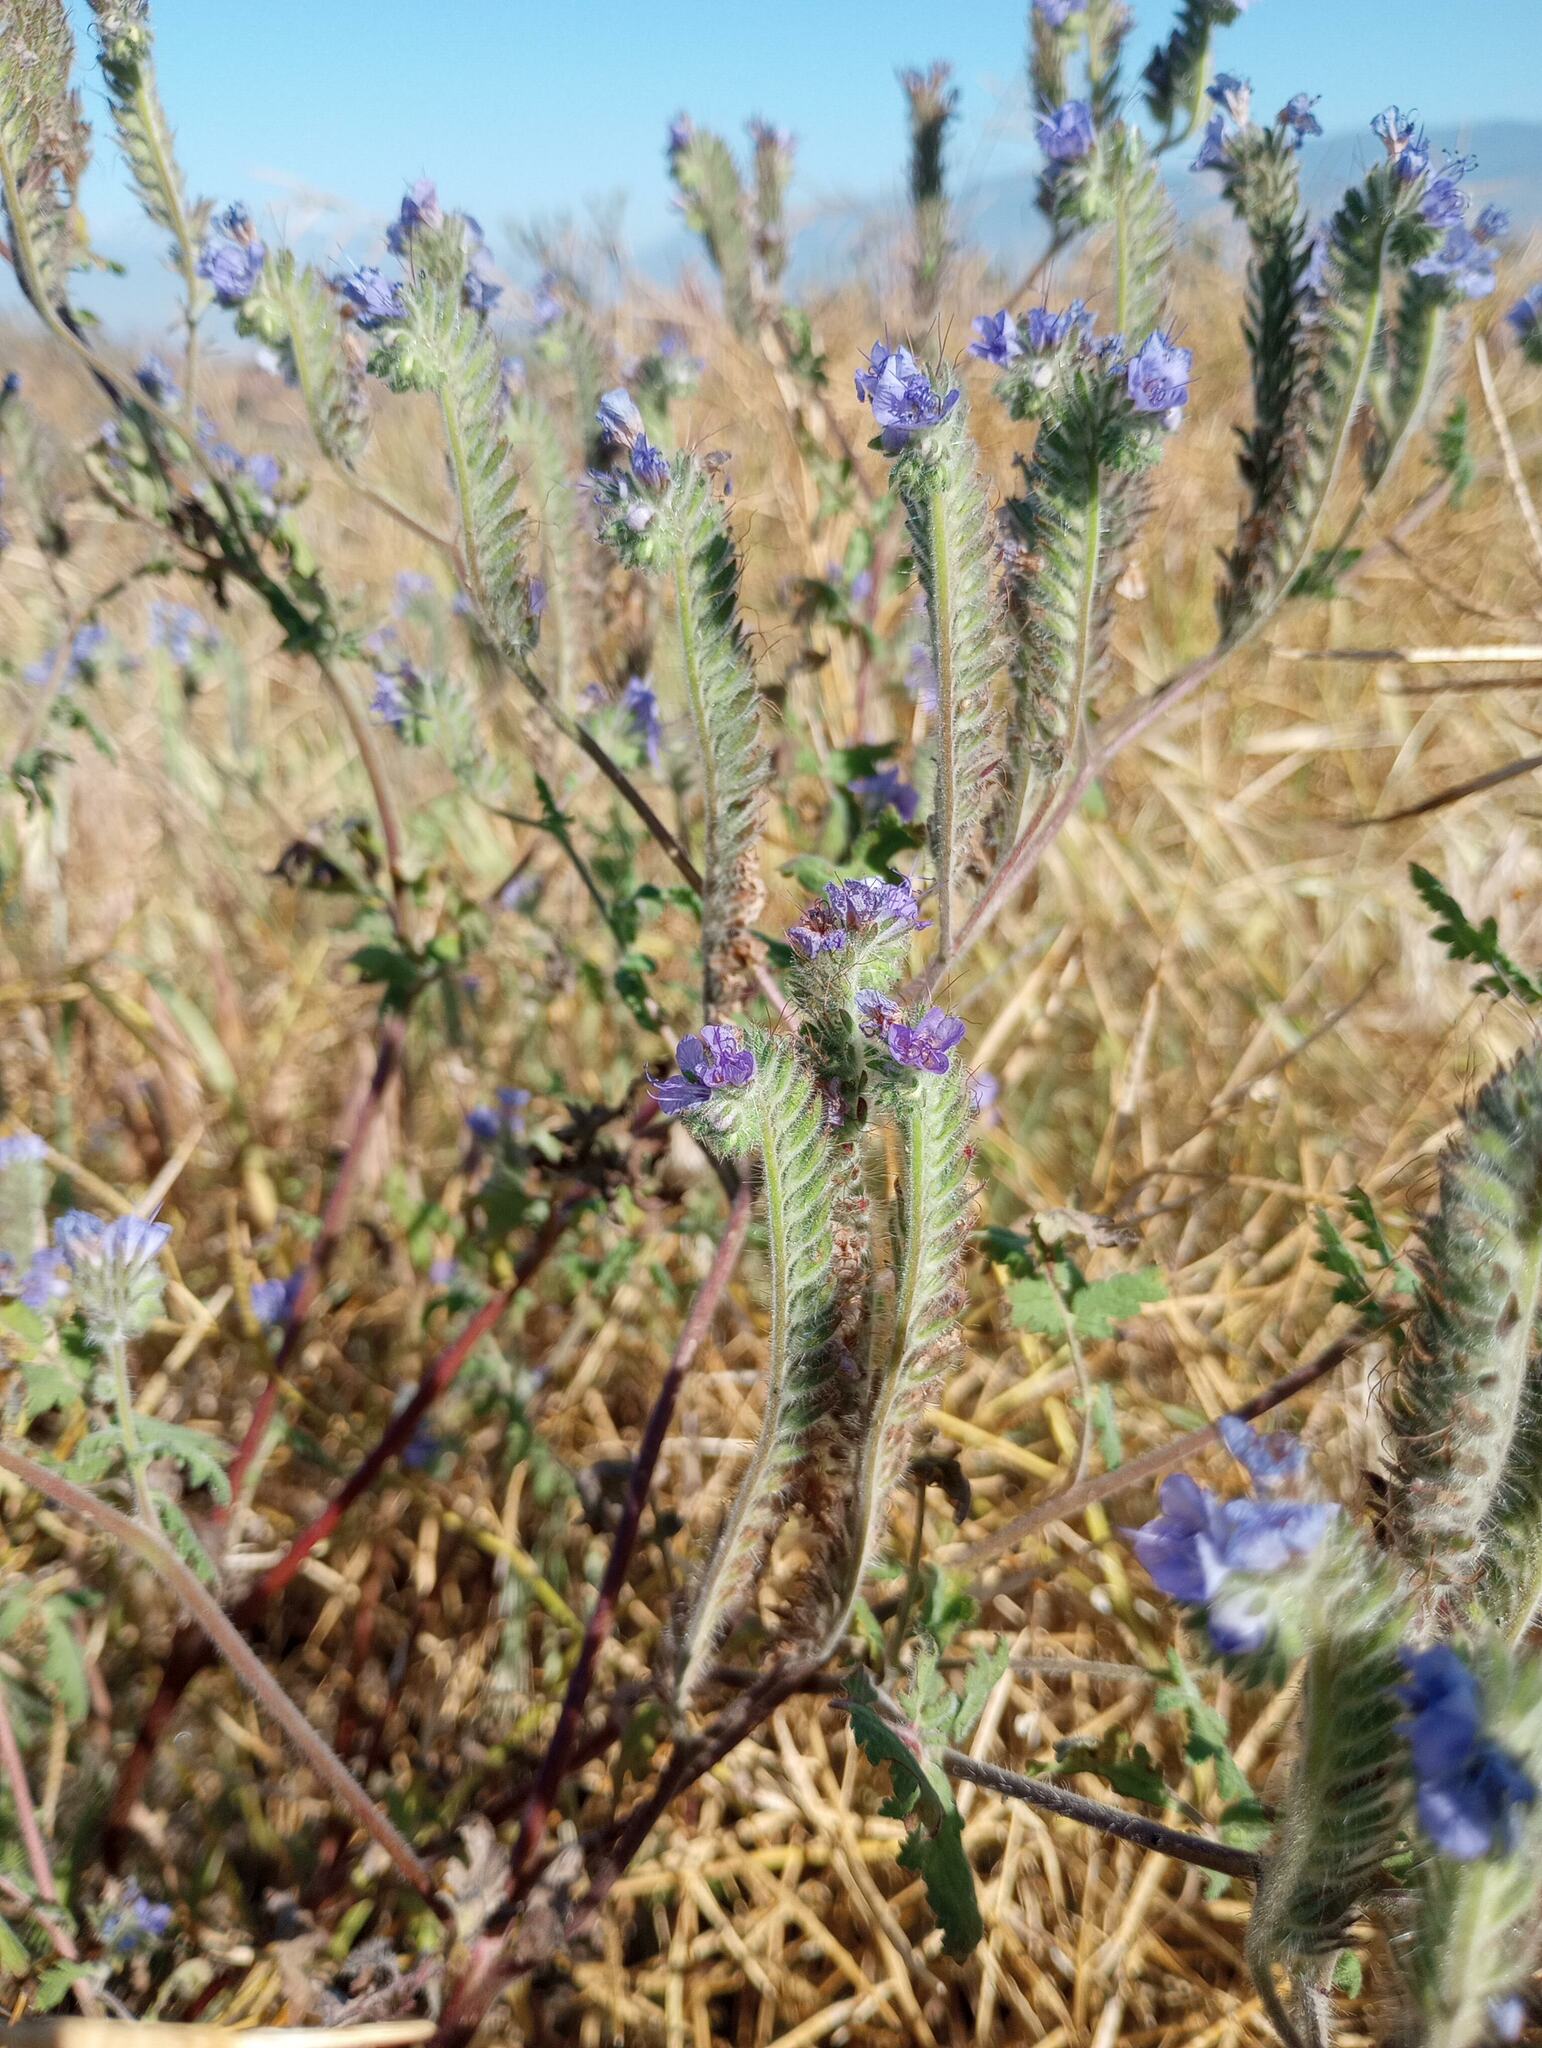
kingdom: Plantae
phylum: Tracheophyta
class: Magnoliopsida
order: Boraginales
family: Hydrophyllaceae
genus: Phacelia
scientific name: Phacelia distans
